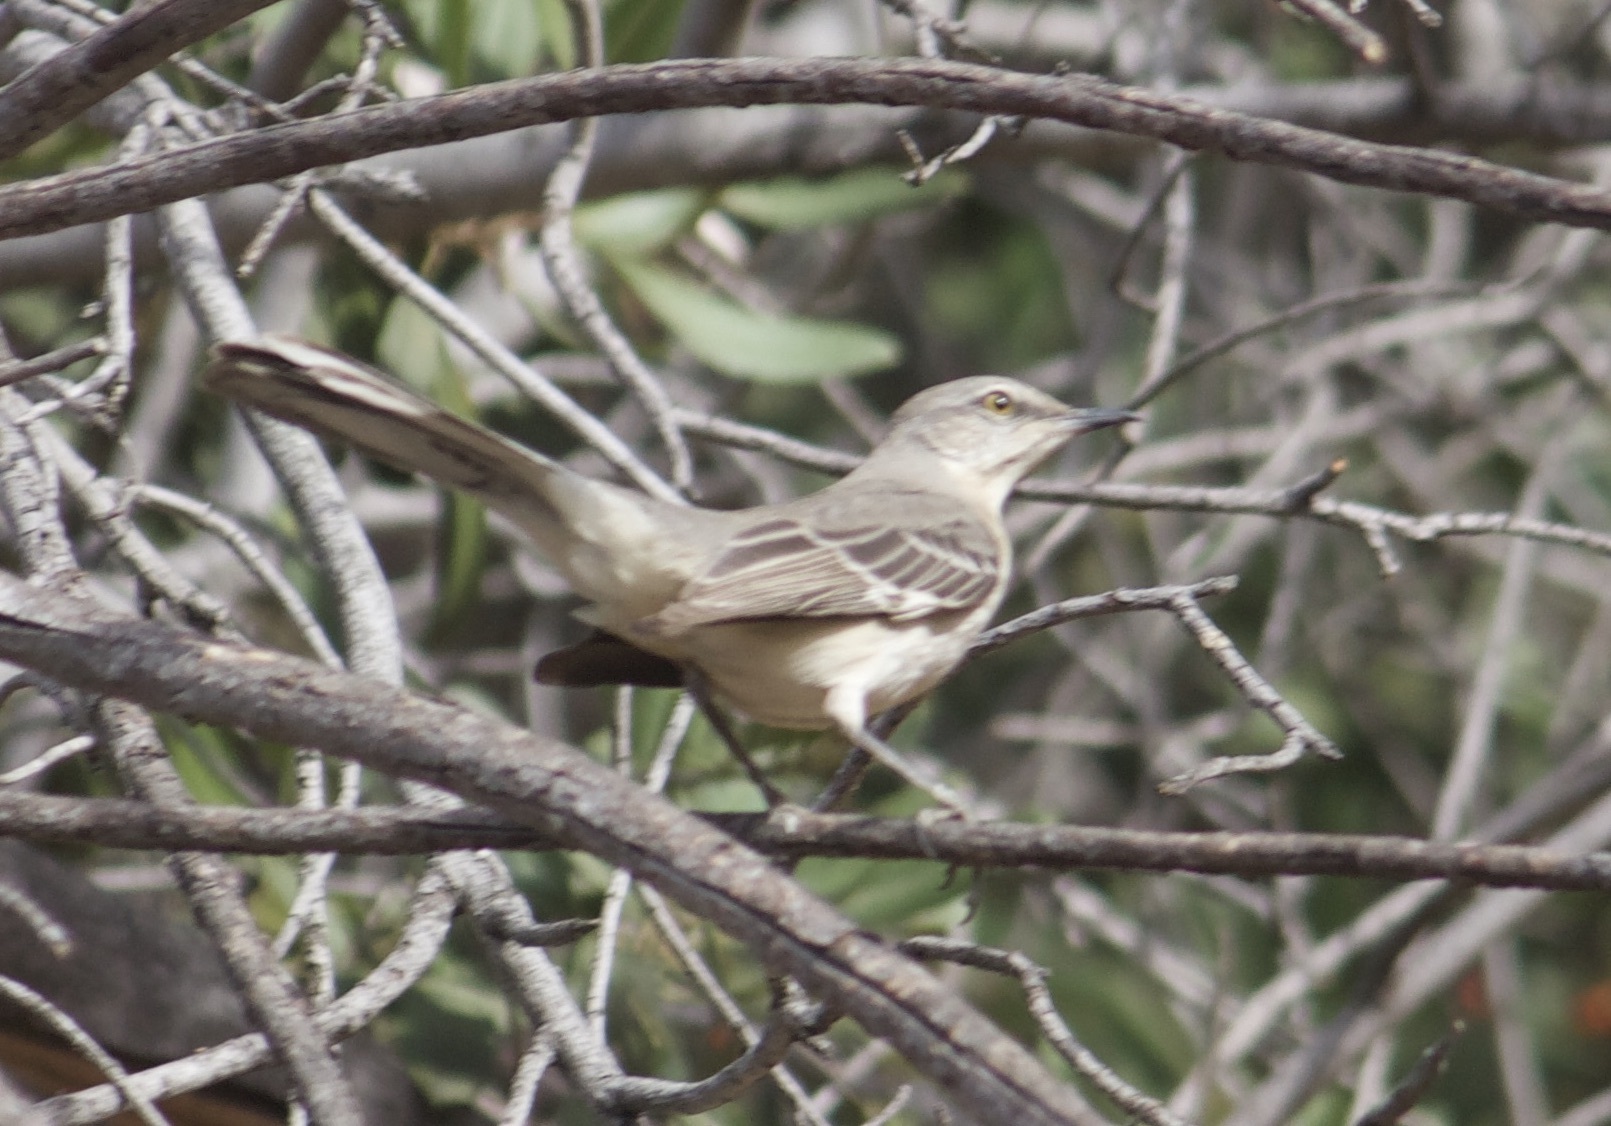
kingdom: Animalia
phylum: Chordata
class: Aves
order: Passeriformes
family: Mimidae
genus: Mimus
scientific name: Mimus polyglottos
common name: Northern mockingbird
